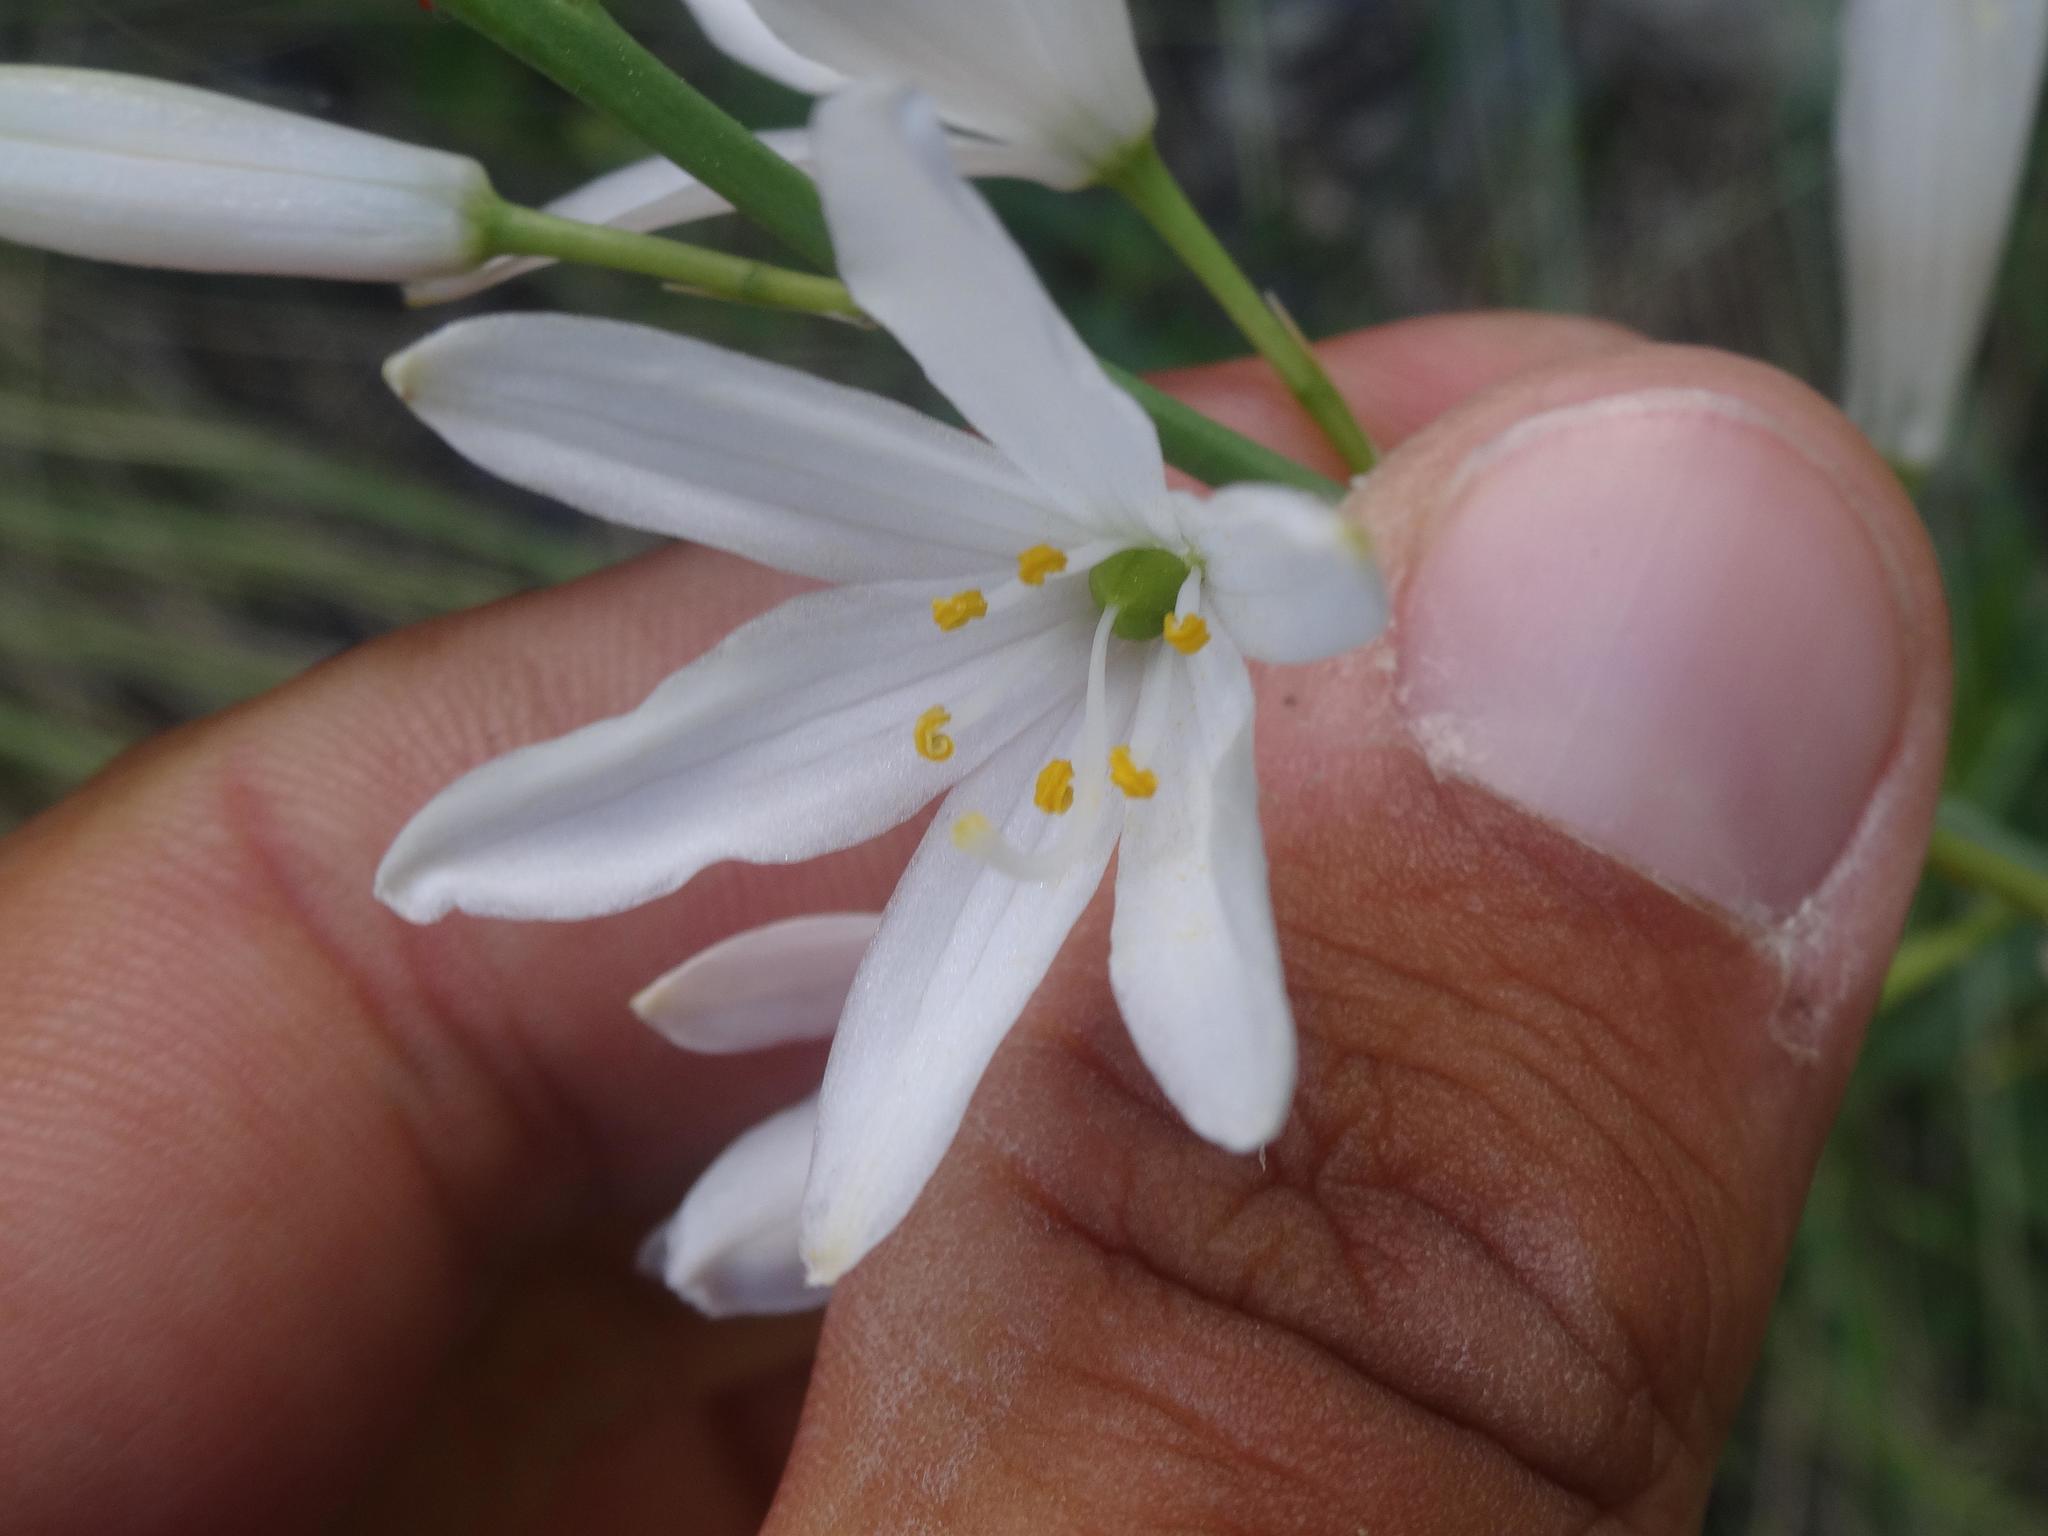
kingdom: Plantae
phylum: Tracheophyta
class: Liliopsida
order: Asparagales
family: Asparagaceae
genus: Anthericum
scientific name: Anthericum liliago
